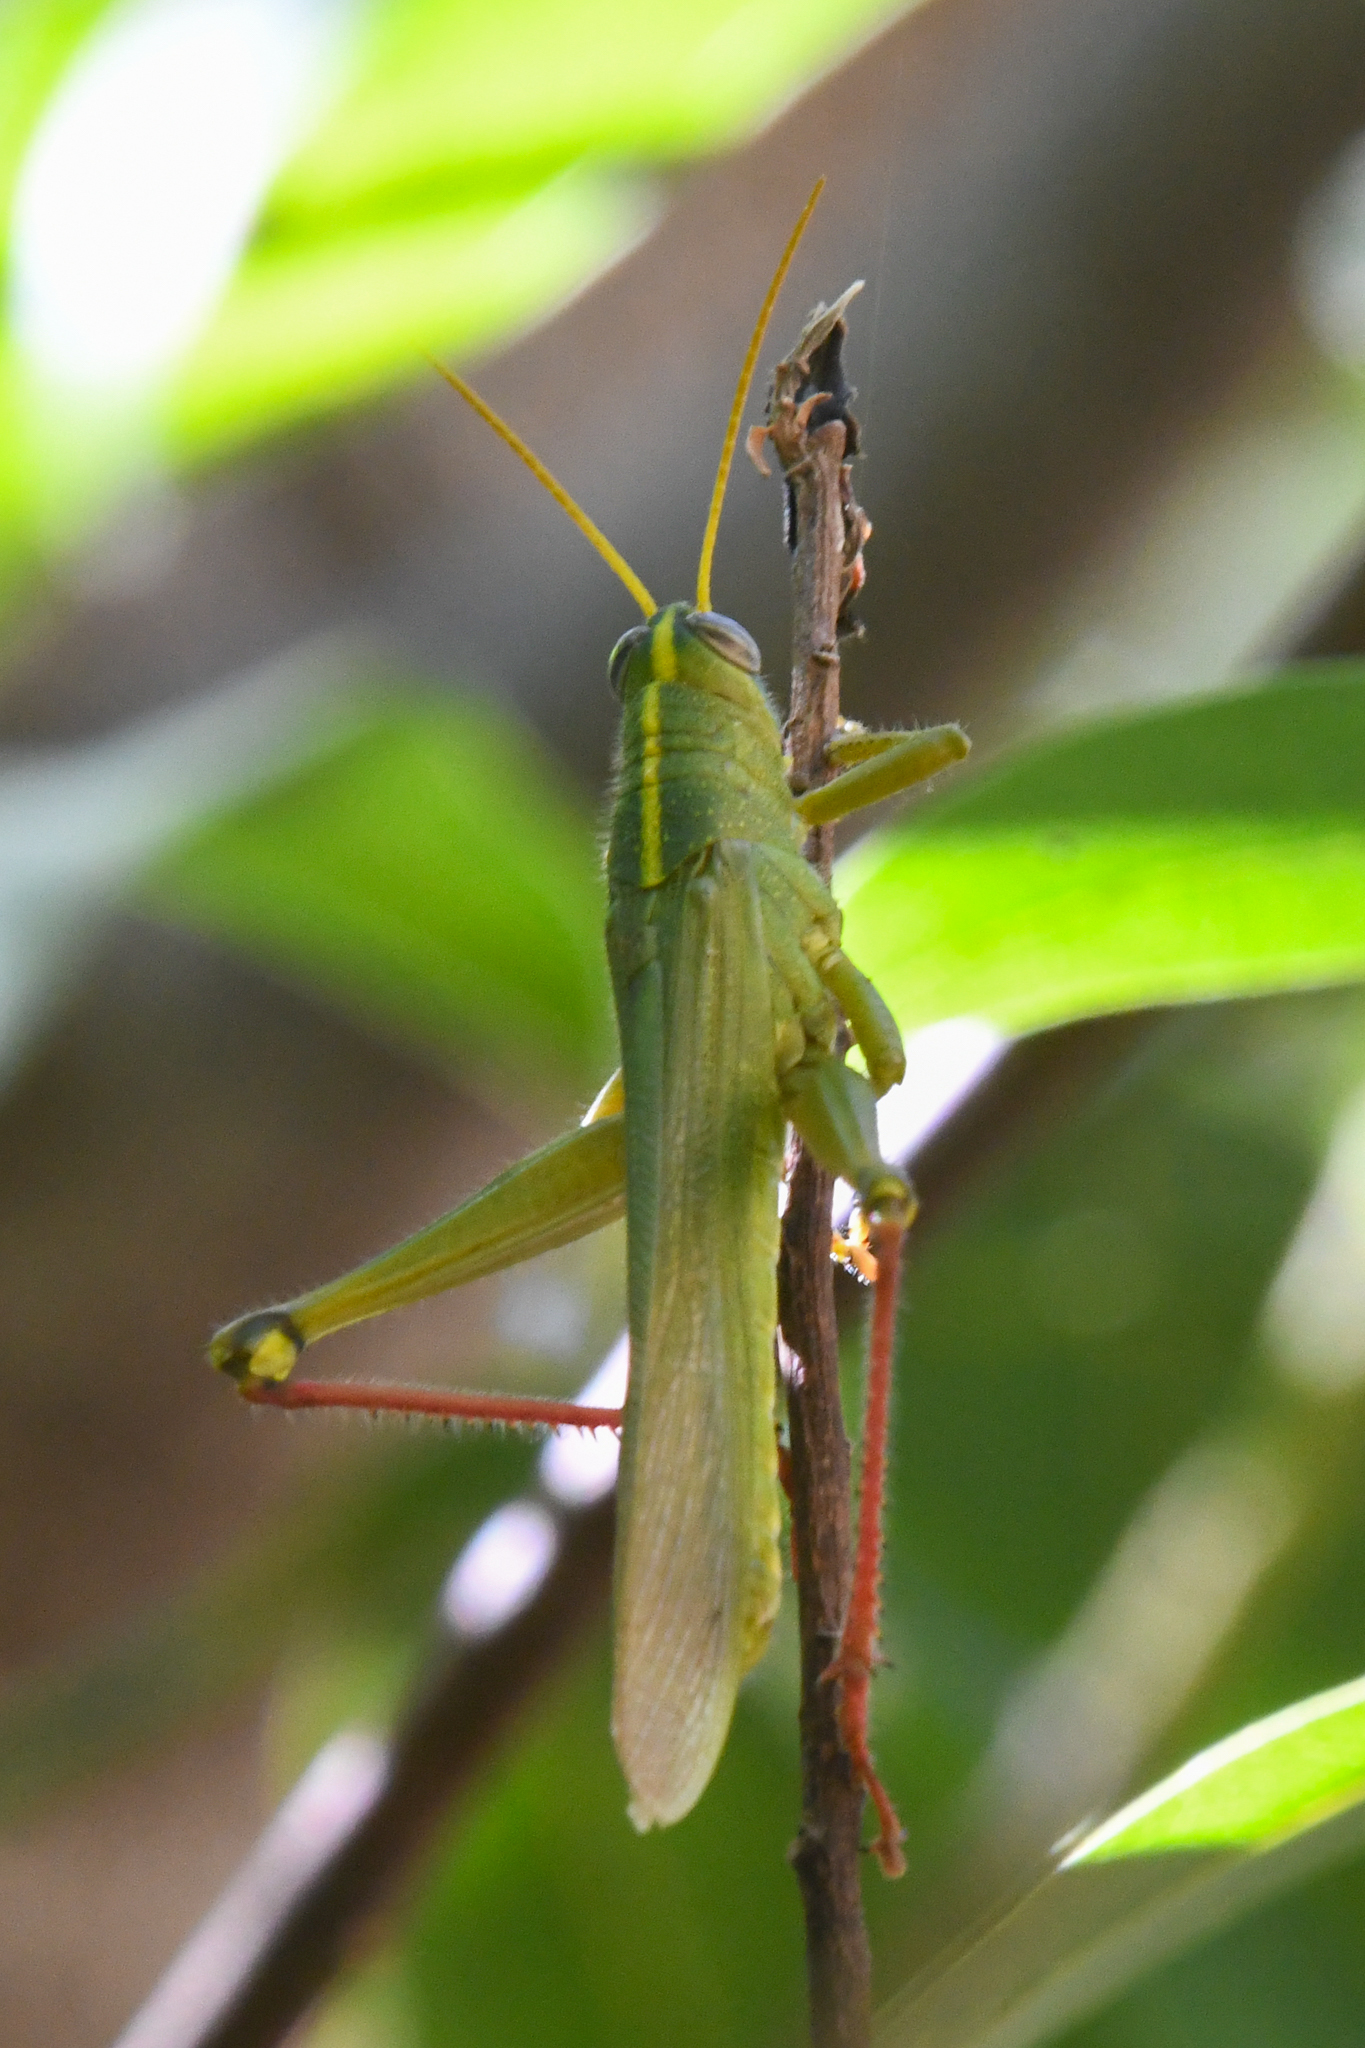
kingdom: Animalia
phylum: Arthropoda
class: Insecta
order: Orthoptera
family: Acrididae
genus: Schistocerca
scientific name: Schistocerca shoshone
